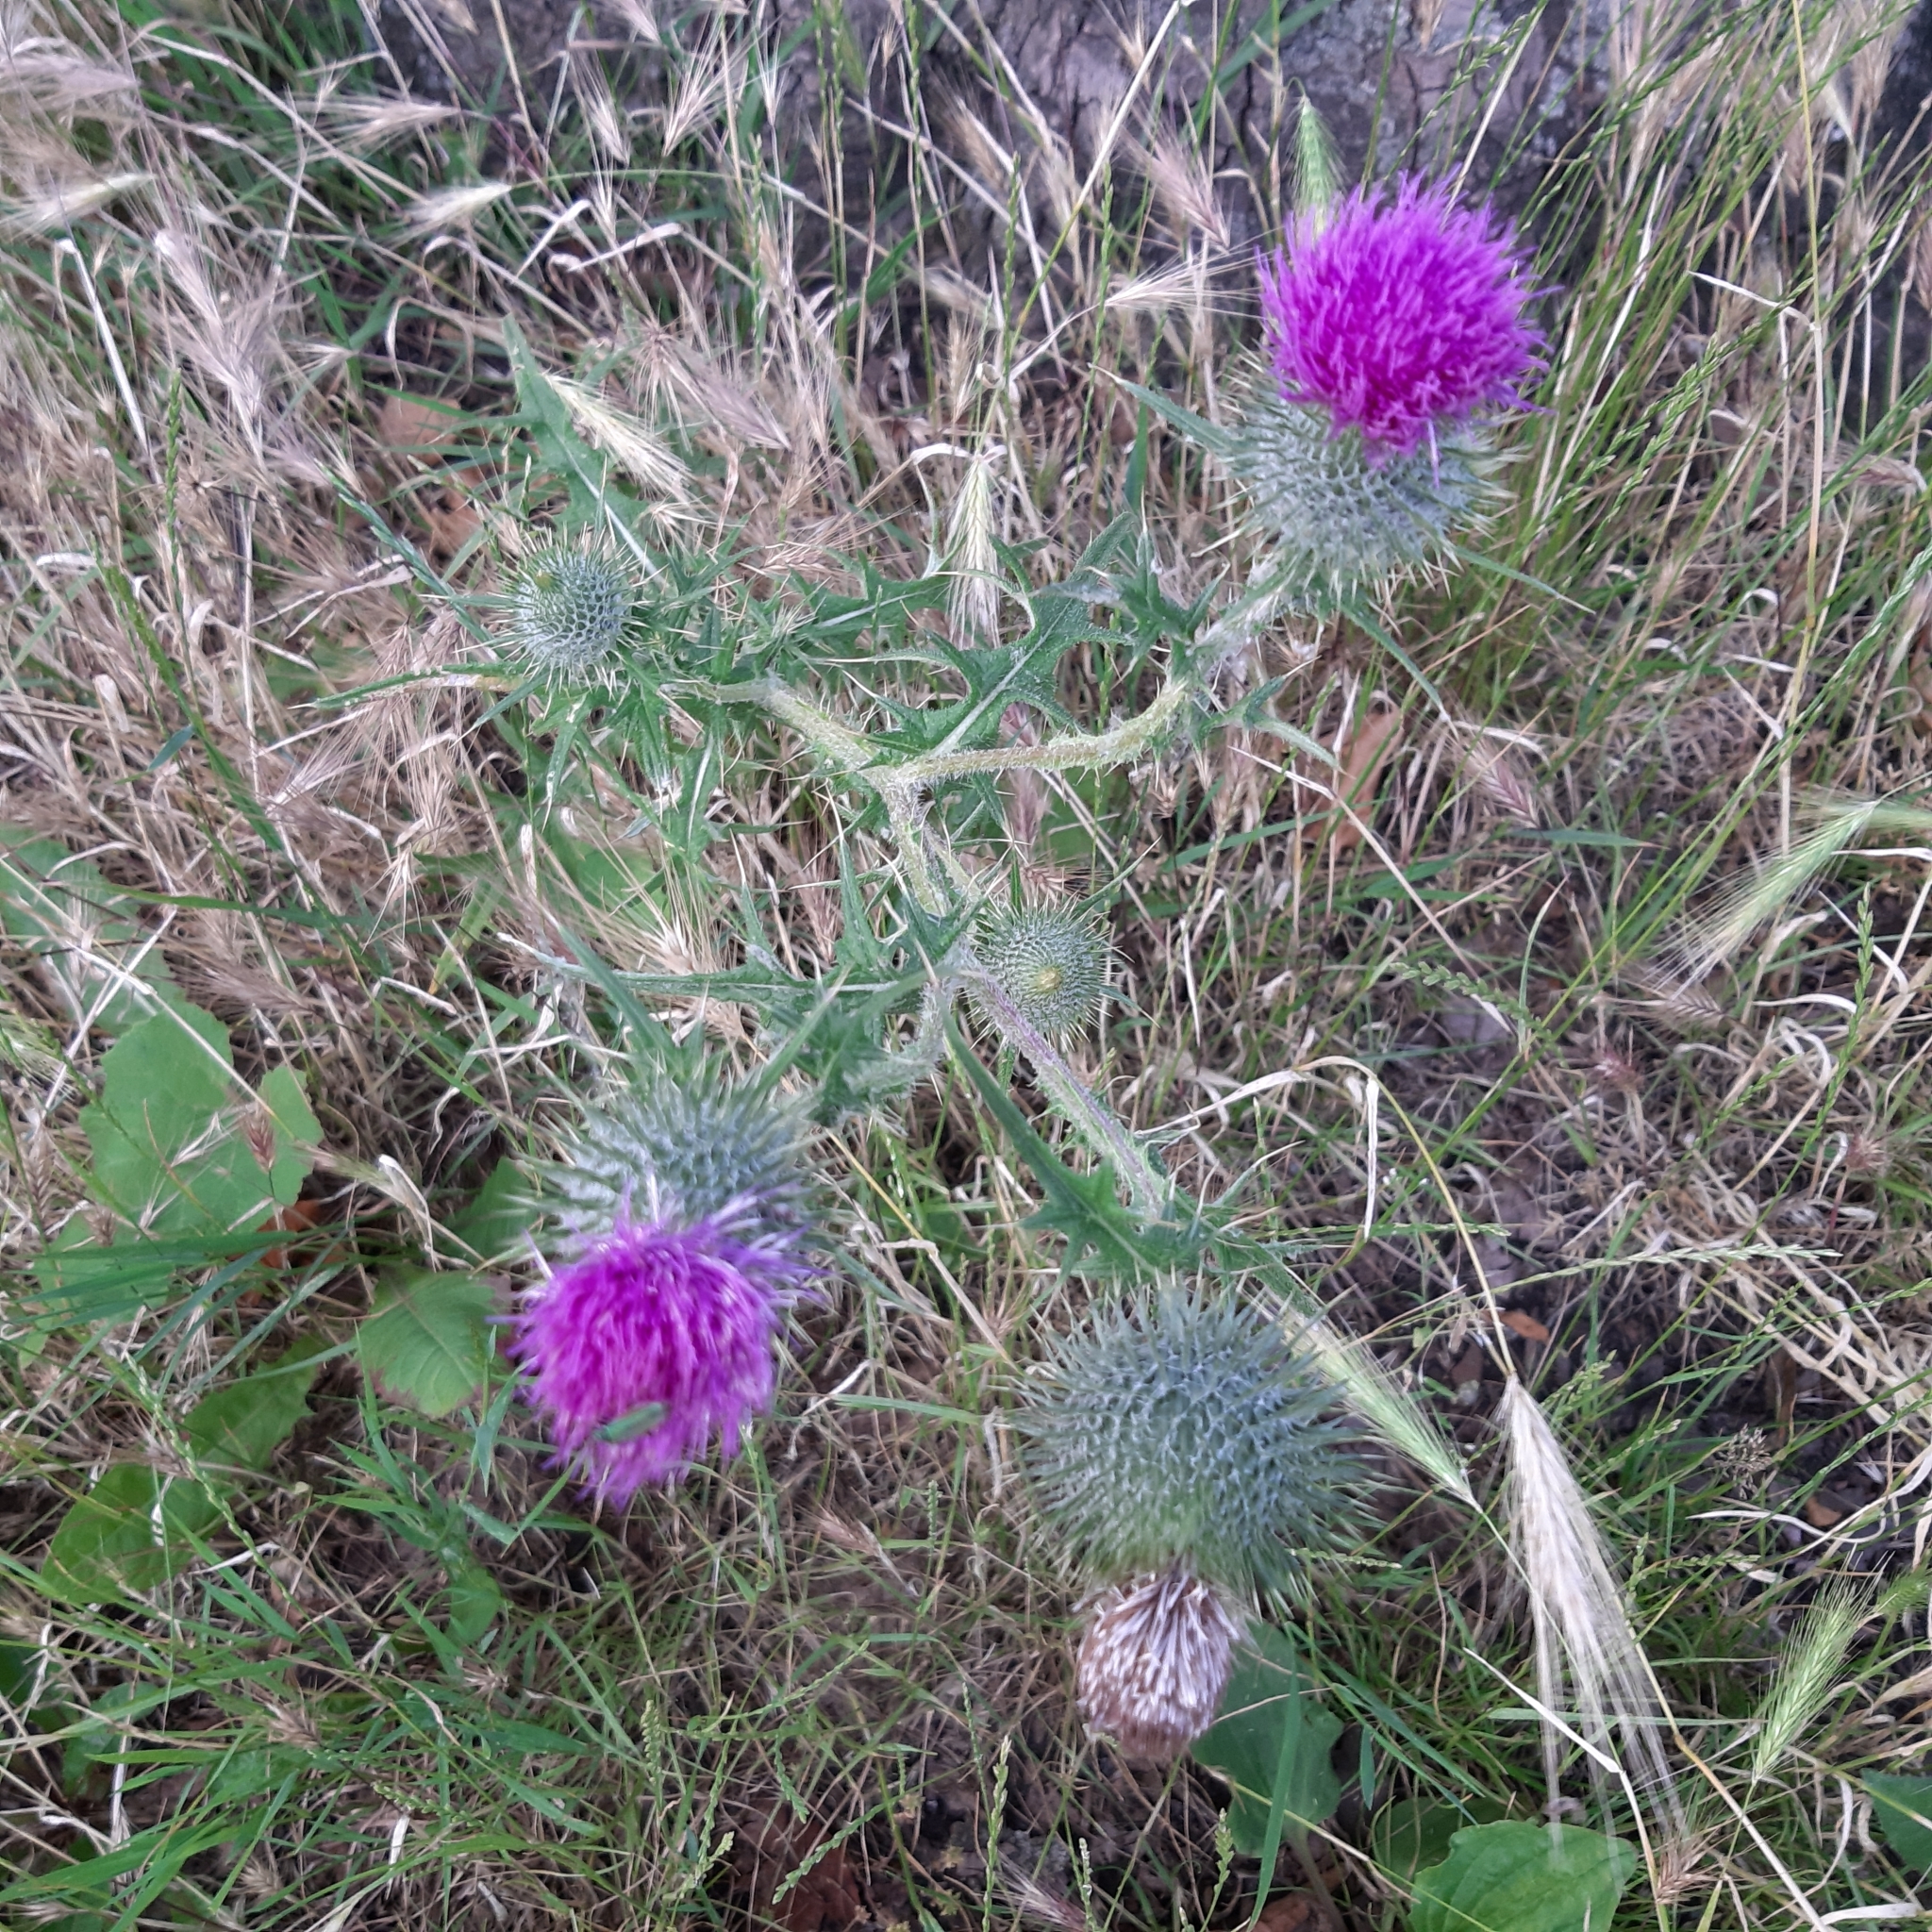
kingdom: Plantae
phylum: Tracheophyta
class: Magnoliopsida
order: Asterales
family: Asteraceae
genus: Cirsium
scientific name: Cirsium vulgare
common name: Bull thistle
